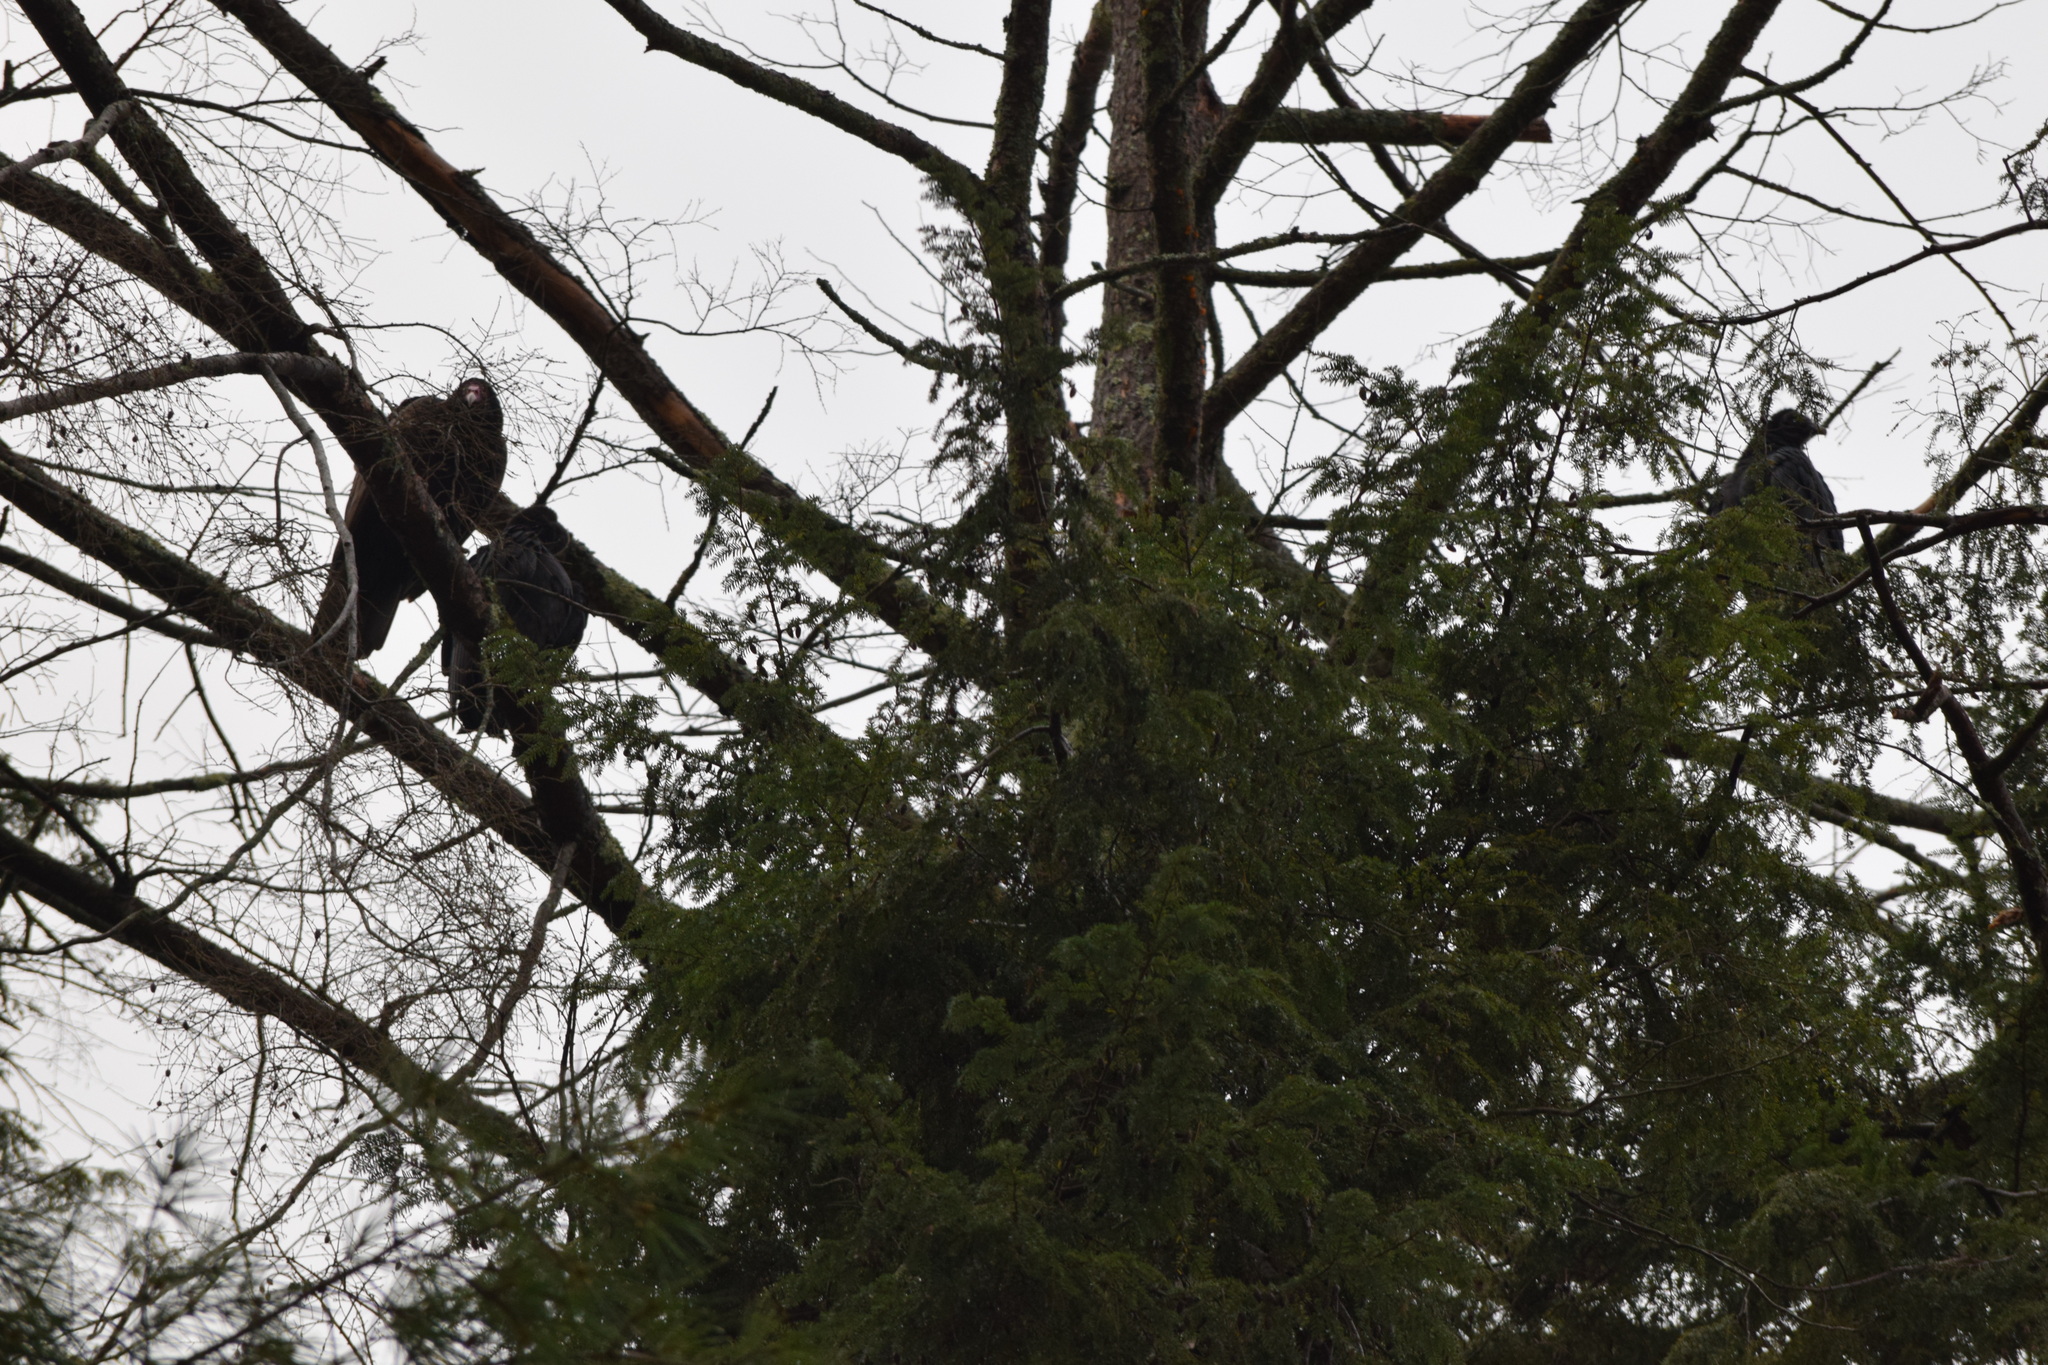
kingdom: Animalia
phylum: Chordata
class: Aves
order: Accipitriformes
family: Cathartidae
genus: Cathartes
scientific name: Cathartes aura
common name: Turkey vulture
